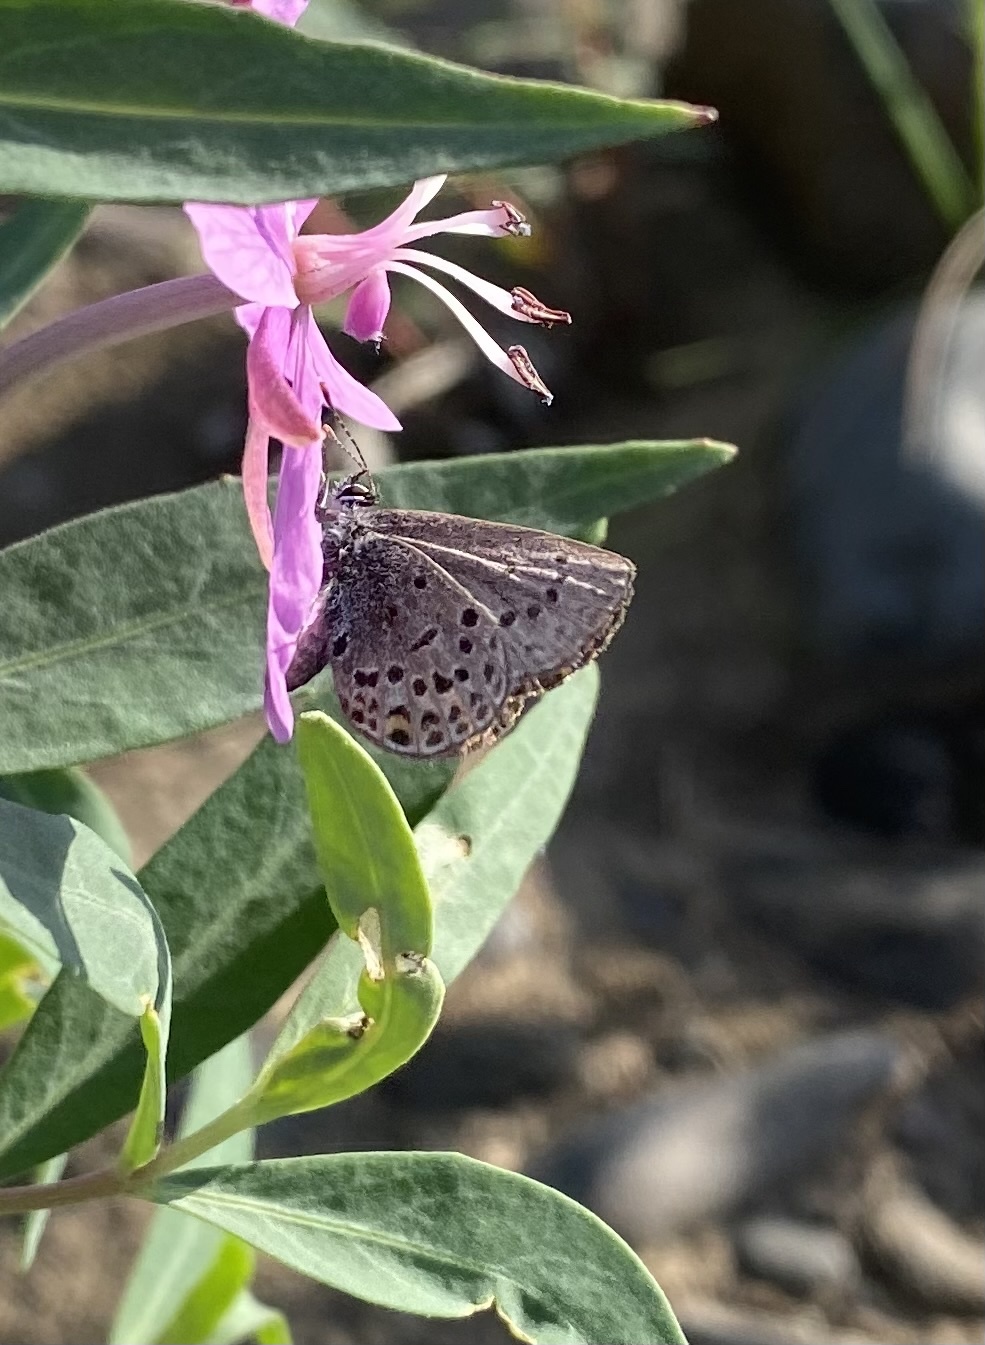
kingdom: Animalia
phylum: Arthropoda
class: Insecta
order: Lepidoptera
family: Lycaenidae
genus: Vacciniina
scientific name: Vacciniina optilete
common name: Cranberry blue
